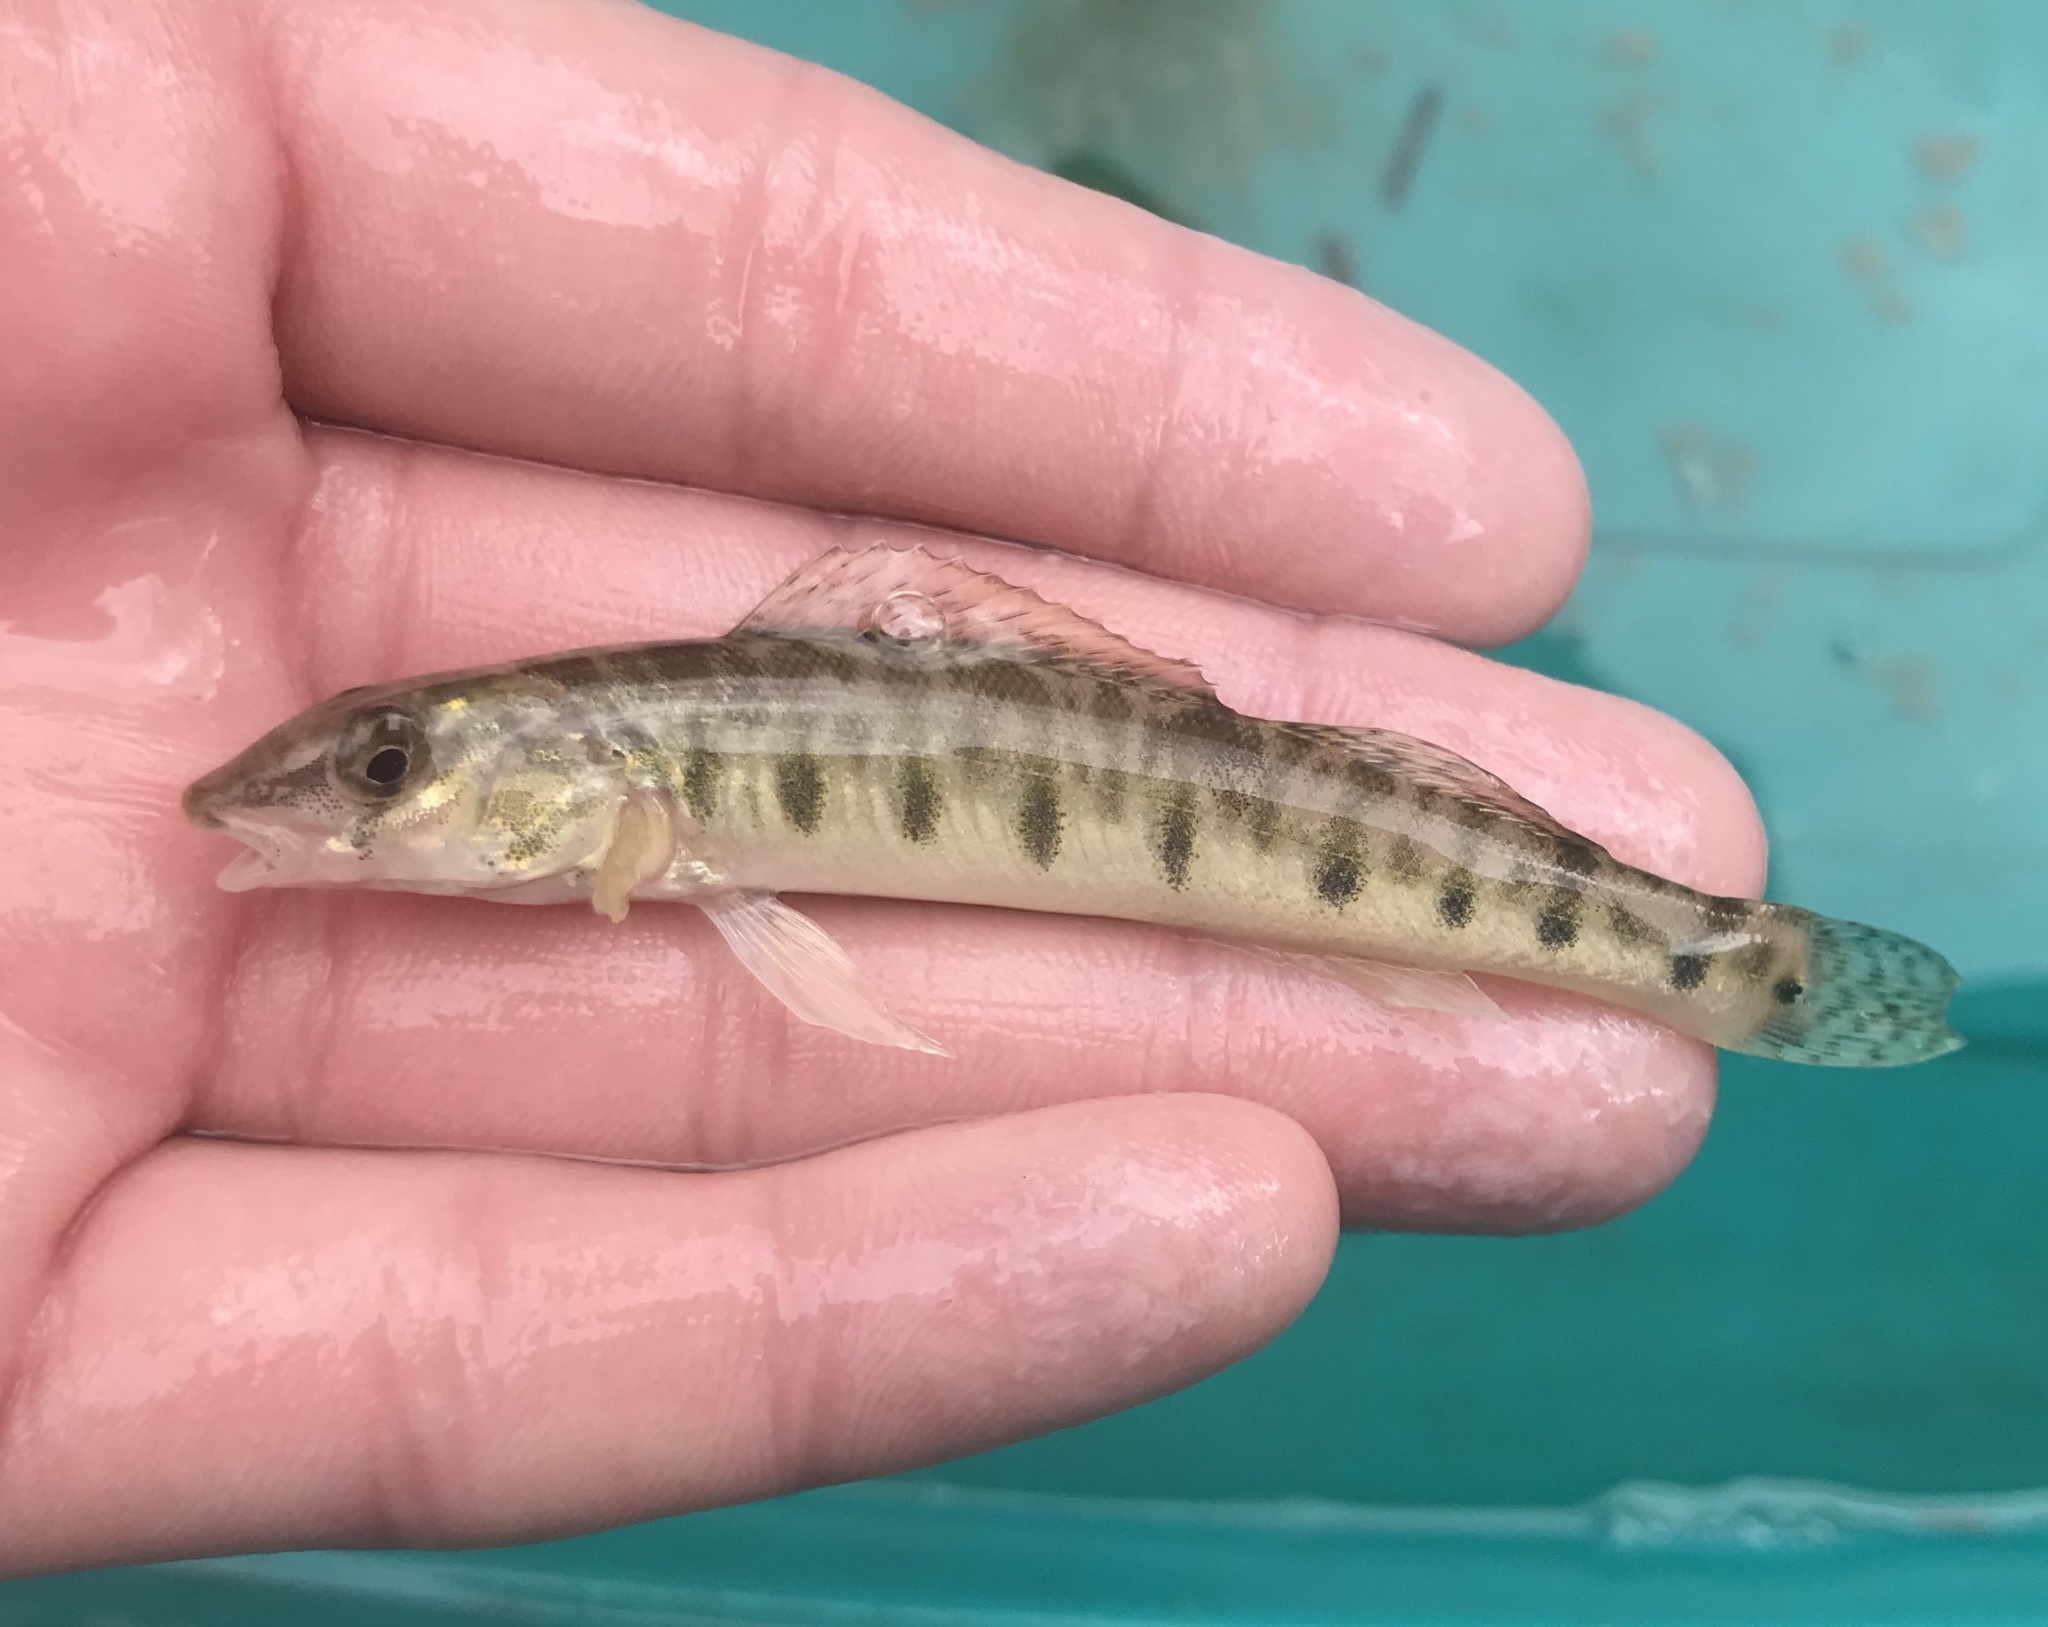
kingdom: Animalia
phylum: Chordata
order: Perciformes
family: Percidae
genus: Percina
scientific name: Percina carbonaria
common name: Texas logperch
